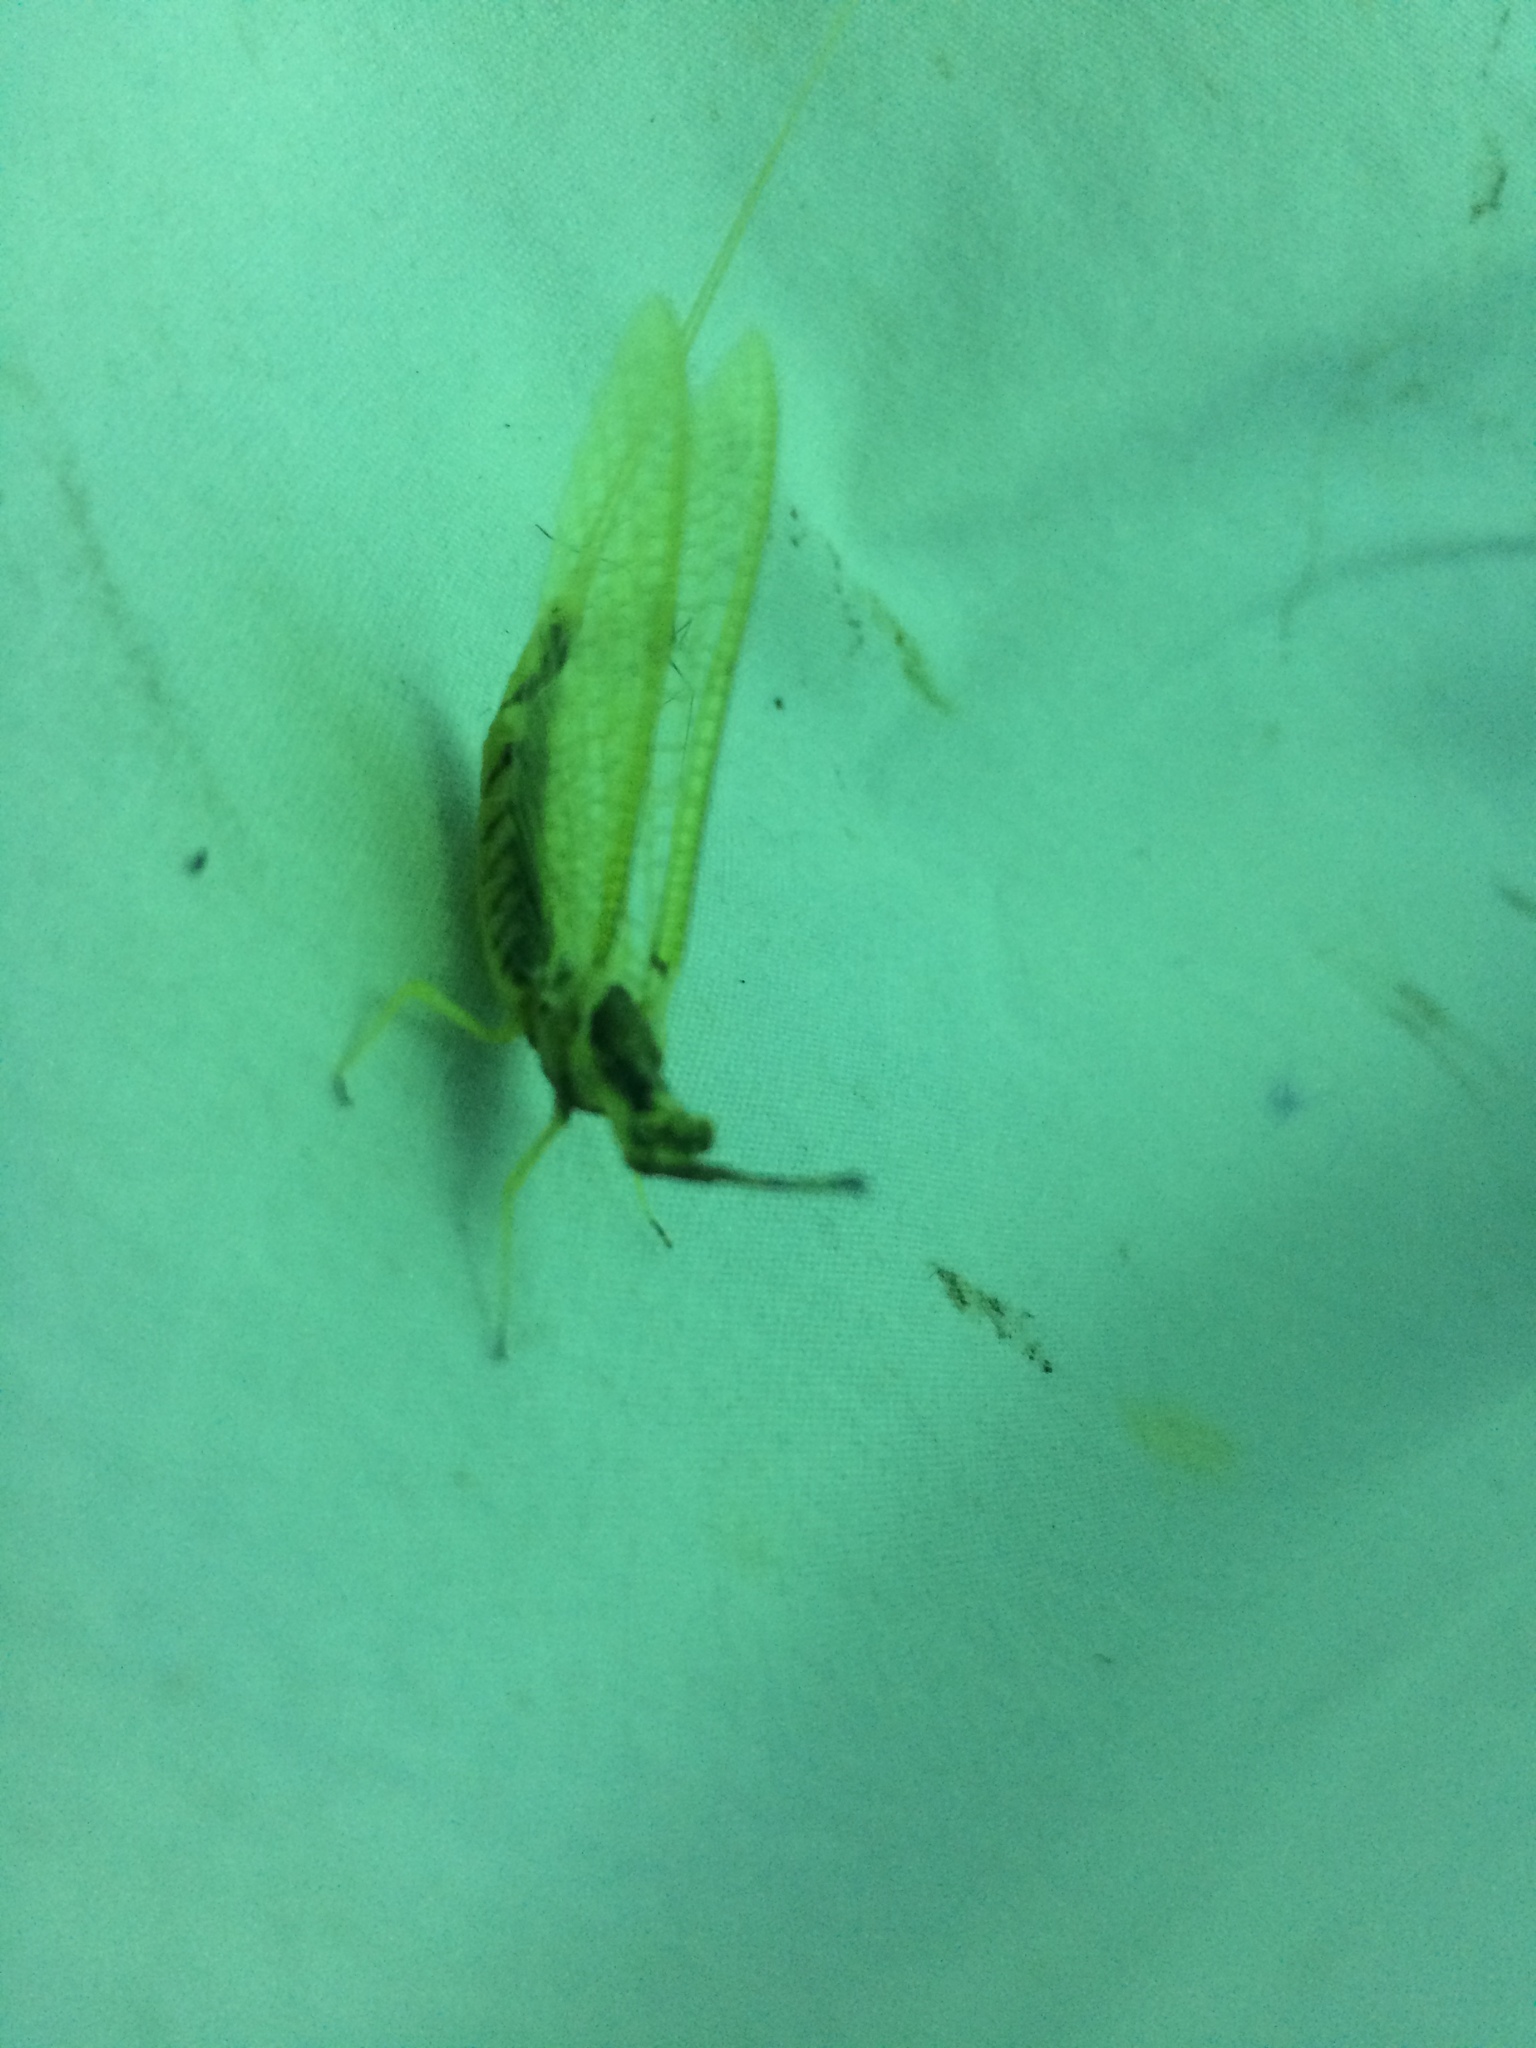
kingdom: Animalia
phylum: Arthropoda
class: Insecta
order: Ephemeroptera
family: Ephemeridae
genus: Hexagenia
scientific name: Hexagenia limbata
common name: Giant mayfly
